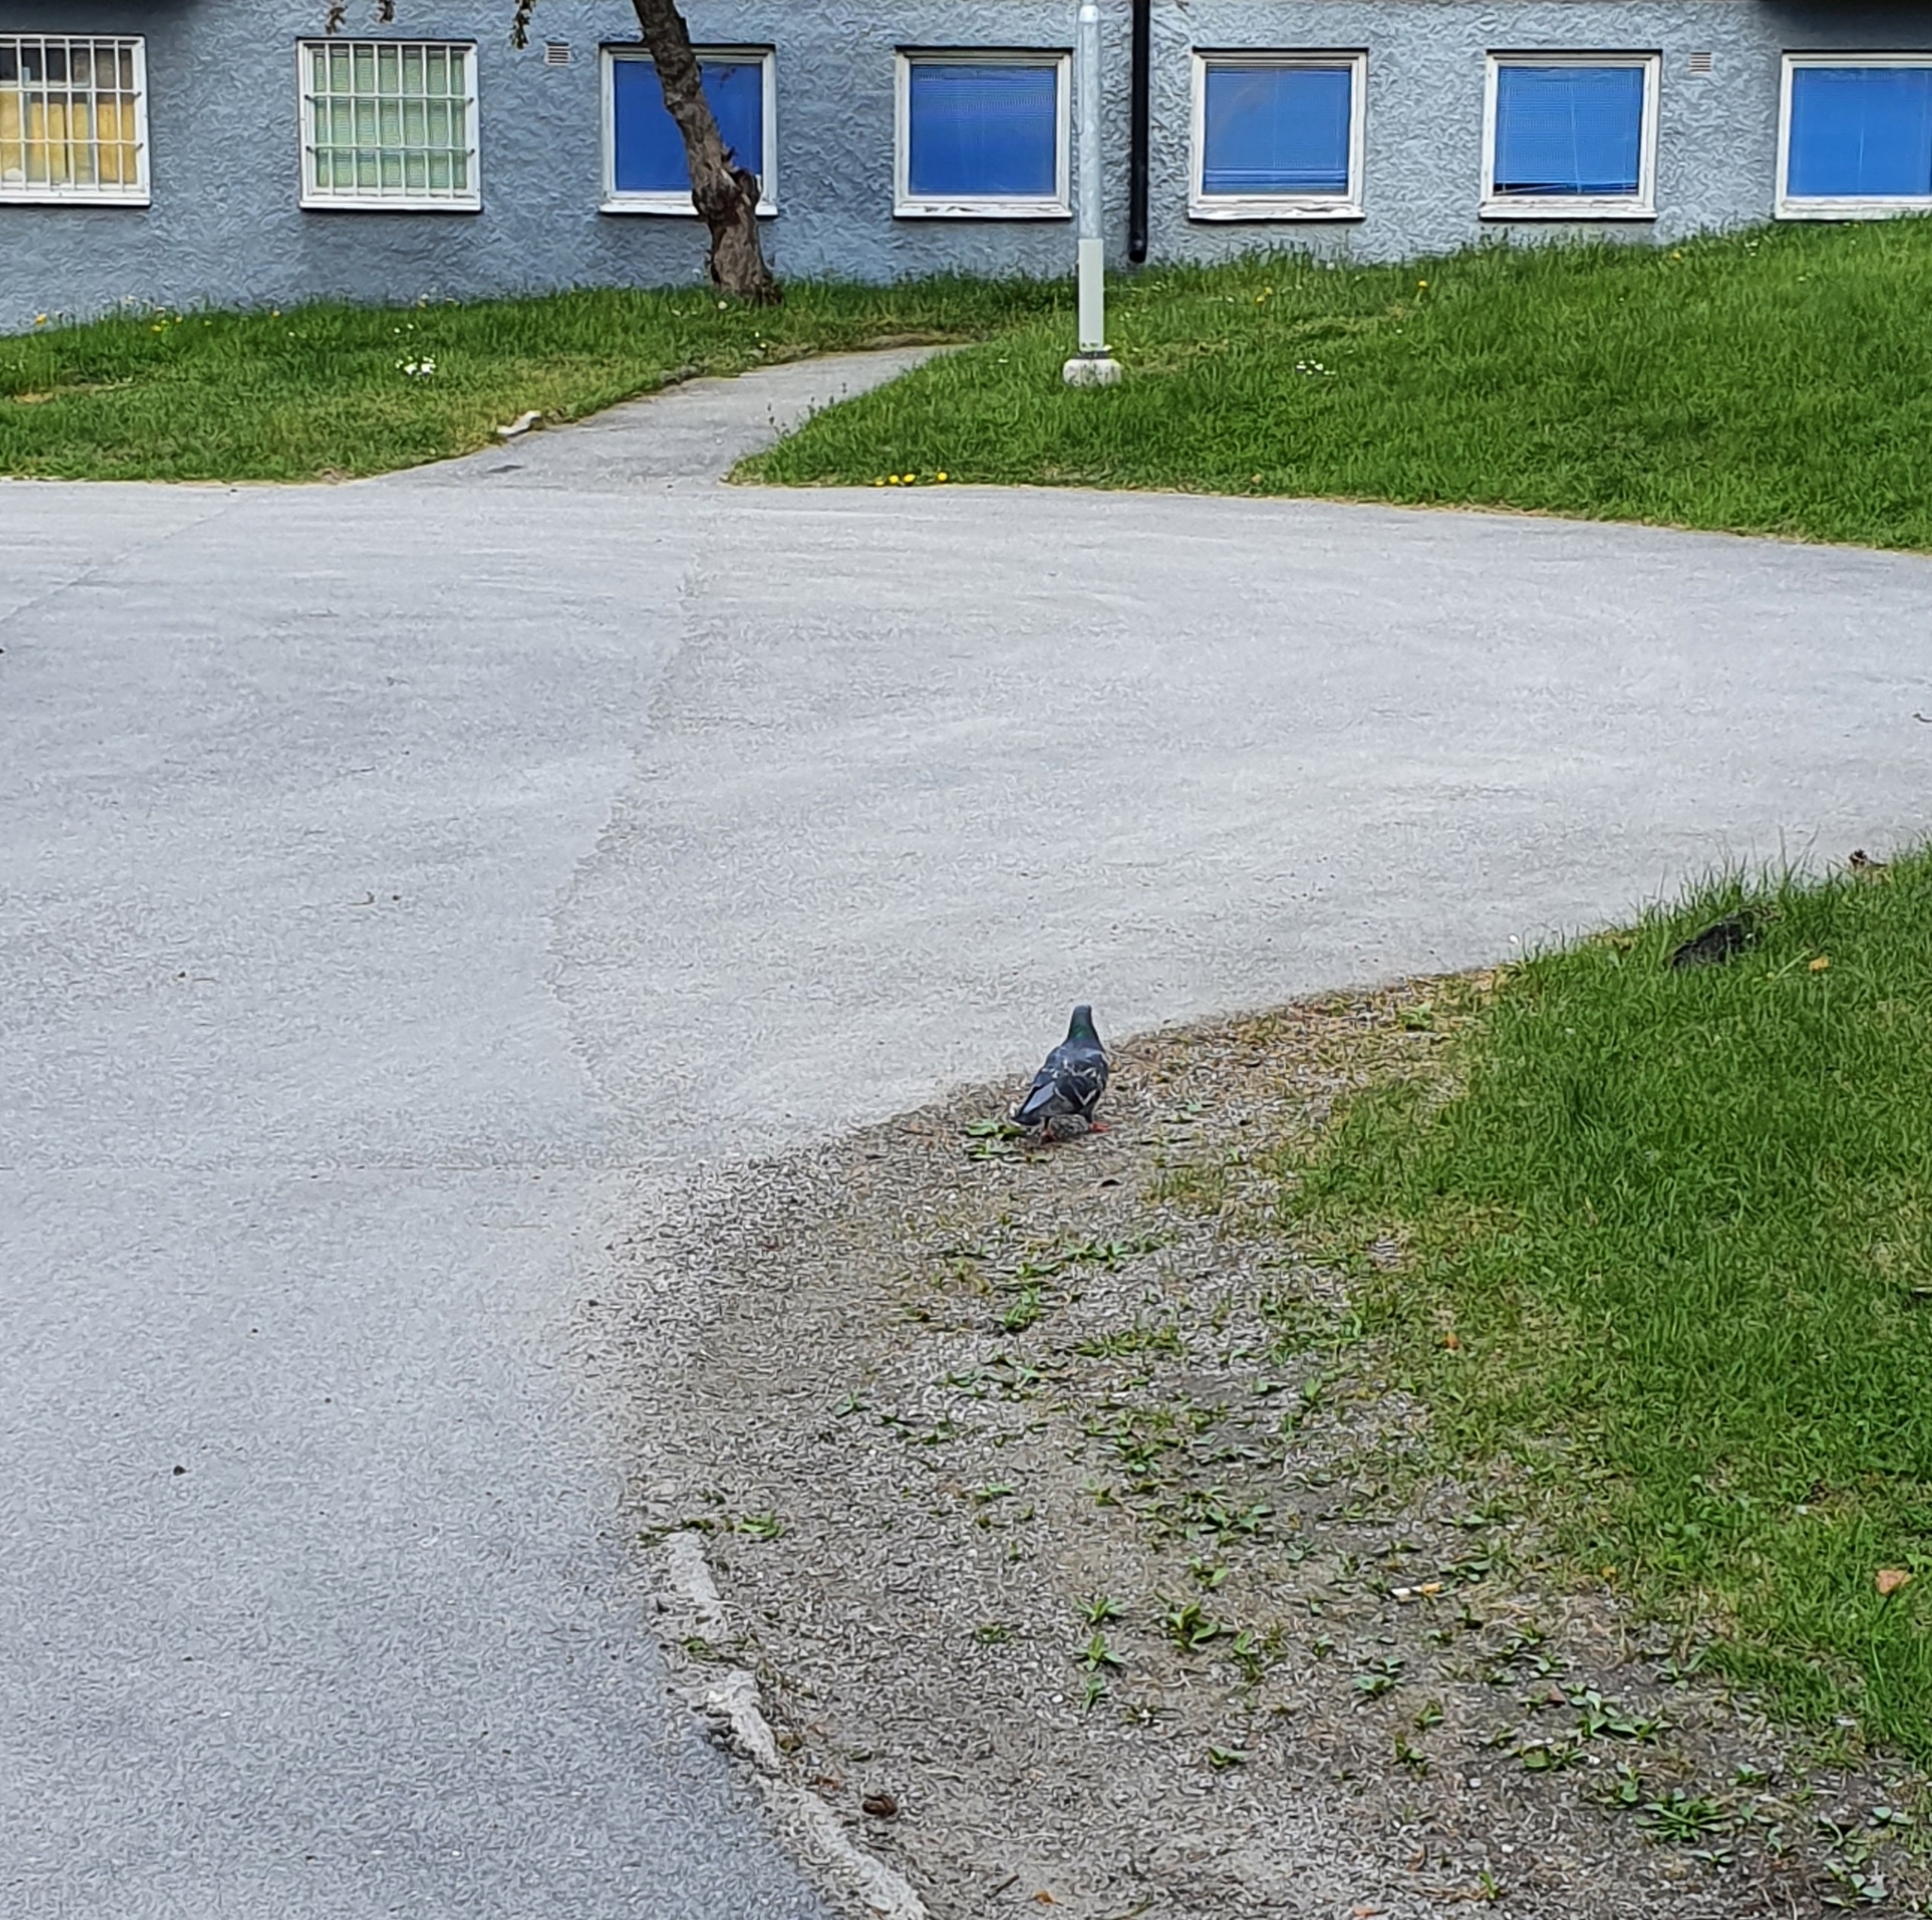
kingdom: Animalia
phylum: Chordata
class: Aves
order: Columbiformes
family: Columbidae
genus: Columba
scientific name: Columba livia
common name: Rock pigeon
